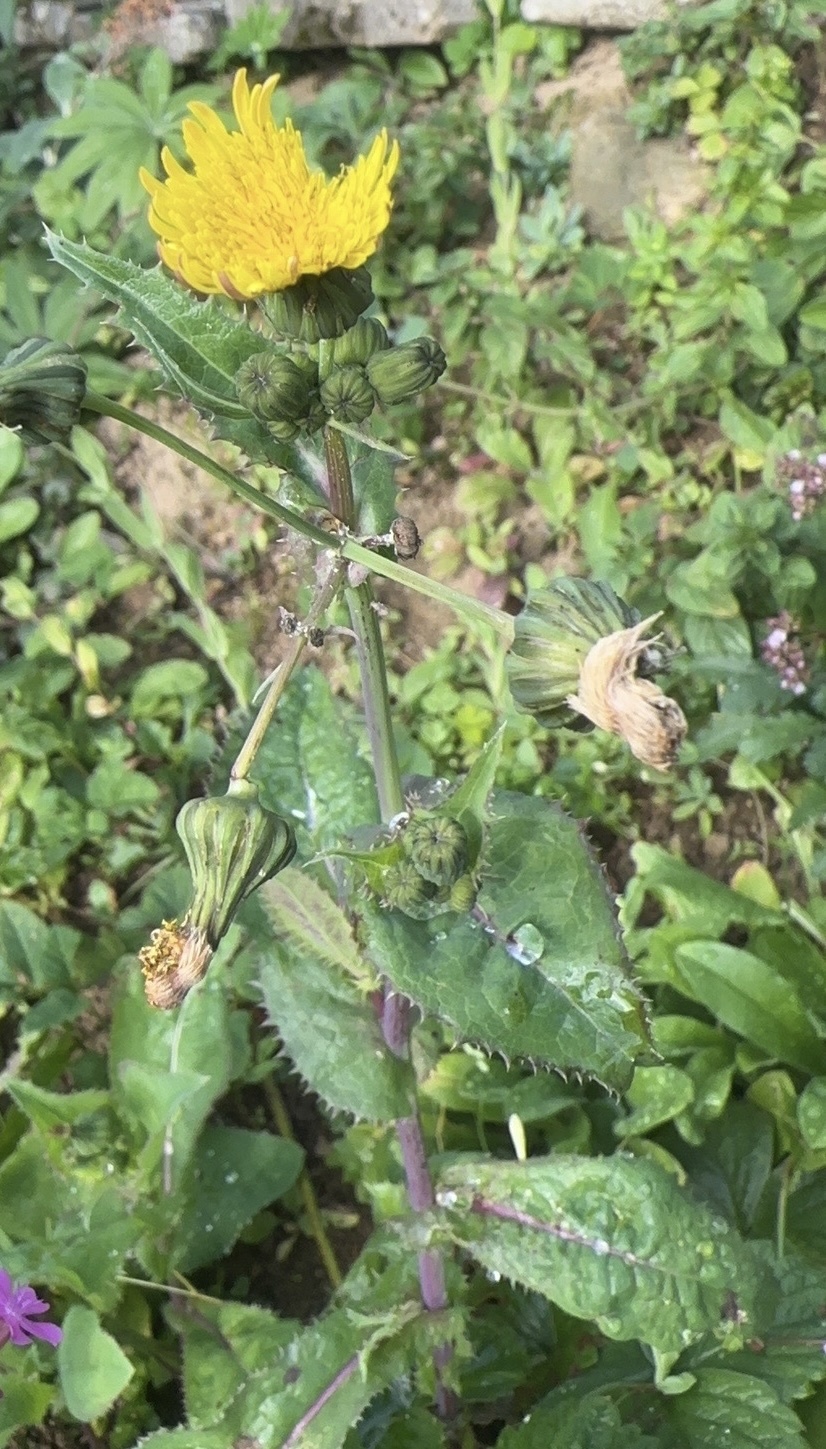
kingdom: Plantae
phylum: Tracheophyta
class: Magnoliopsida
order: Asterales
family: Asteraceae
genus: Sonchus
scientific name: Sonchus arvensis
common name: Perennial sow-thistle
